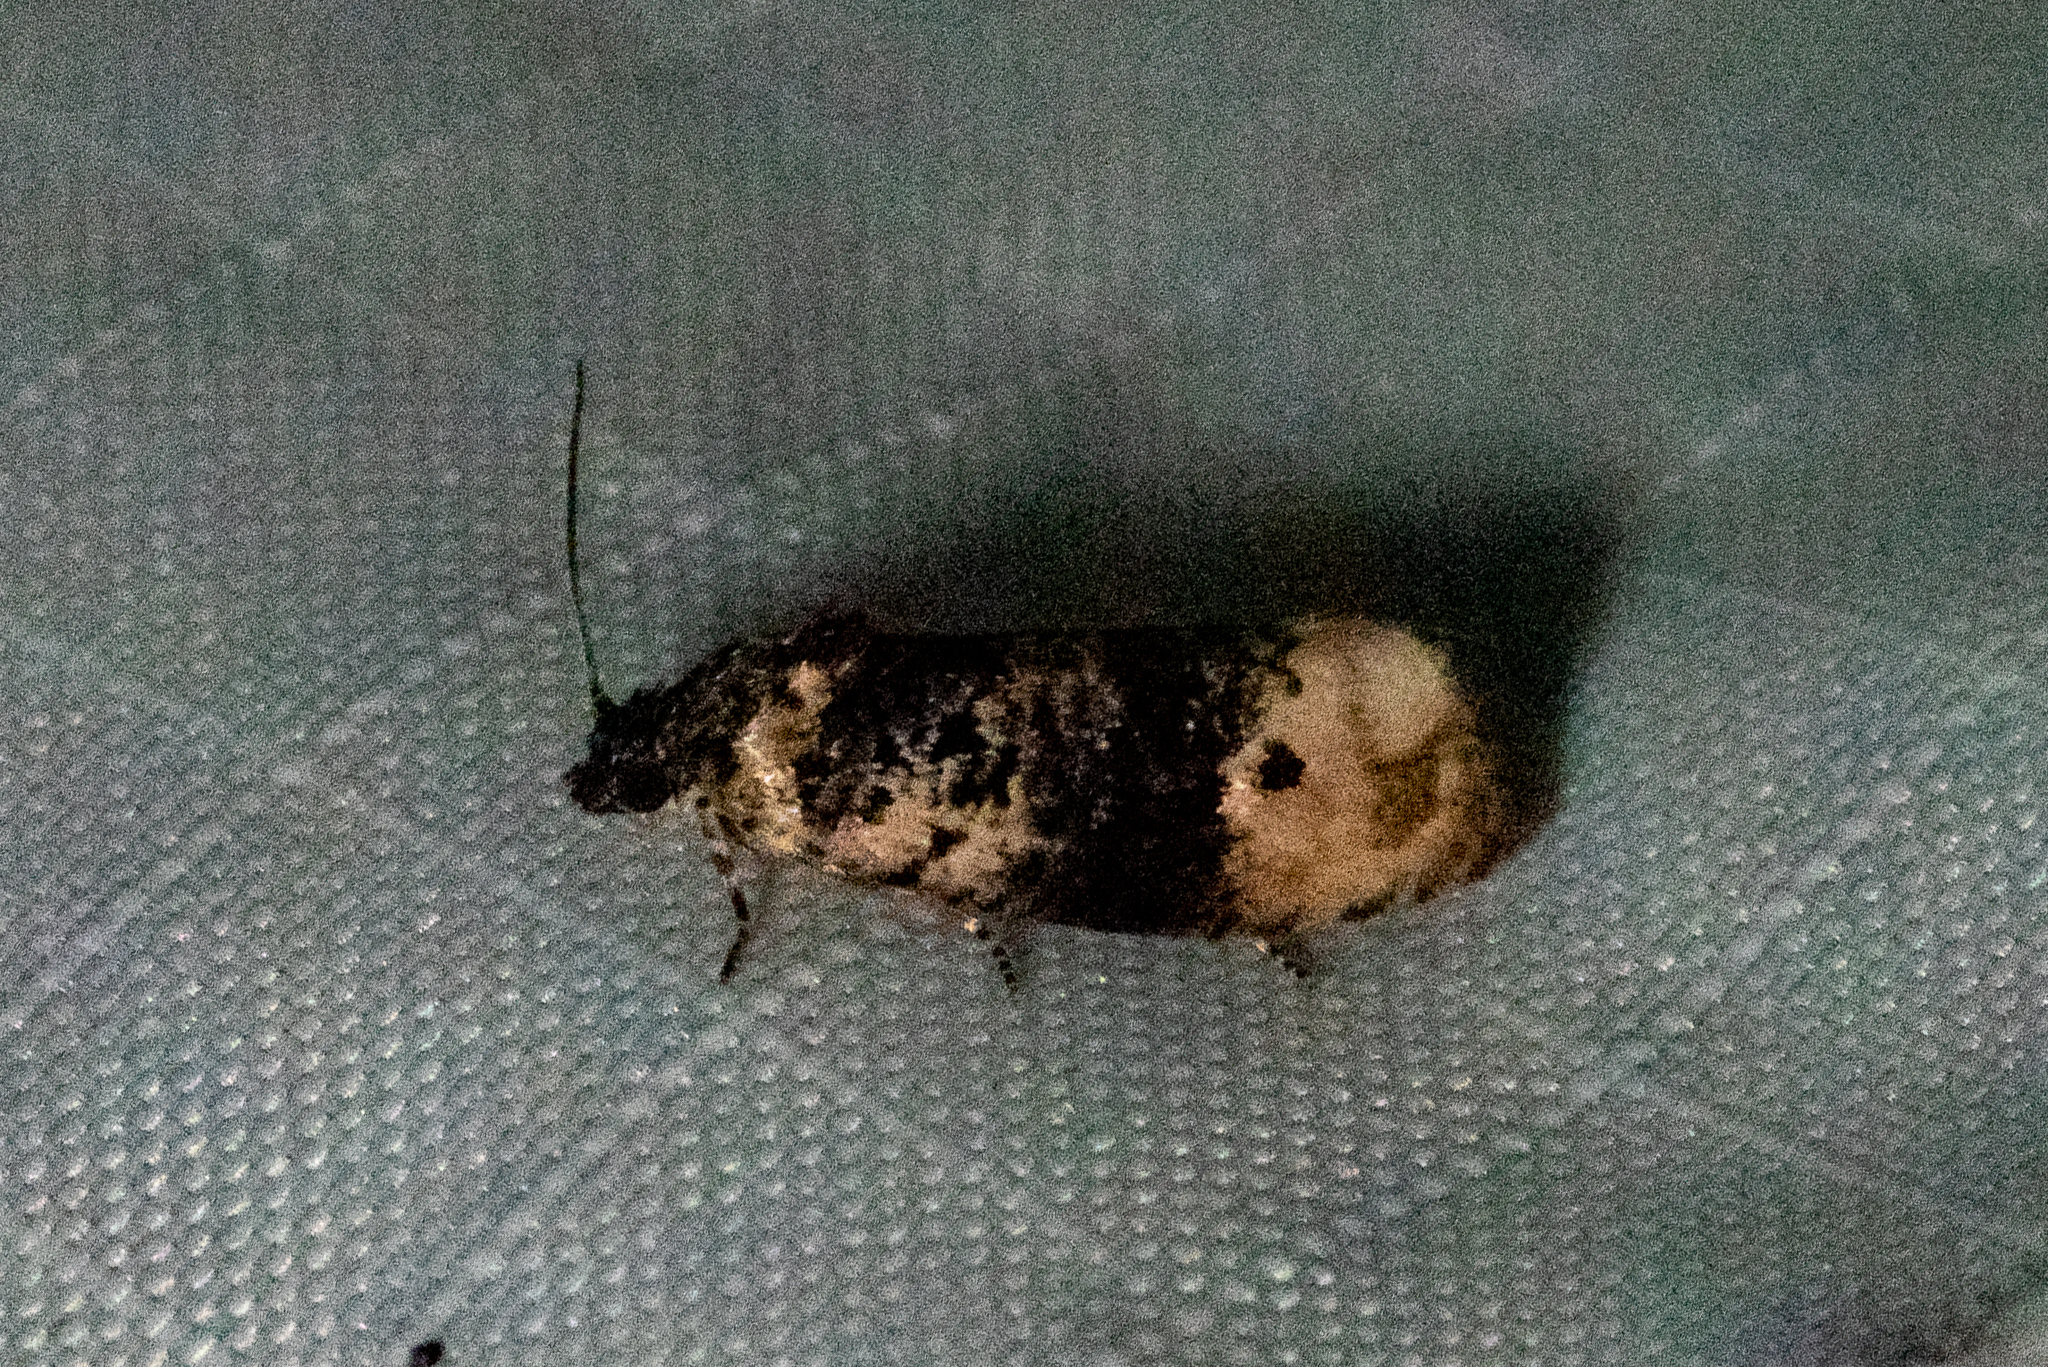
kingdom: Animalia
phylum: Arthropoda
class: Insecta
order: Lepidoptera
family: Tortricidae
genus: Hedya
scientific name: Hedya separatana
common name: Pink-washed leafroller moth
